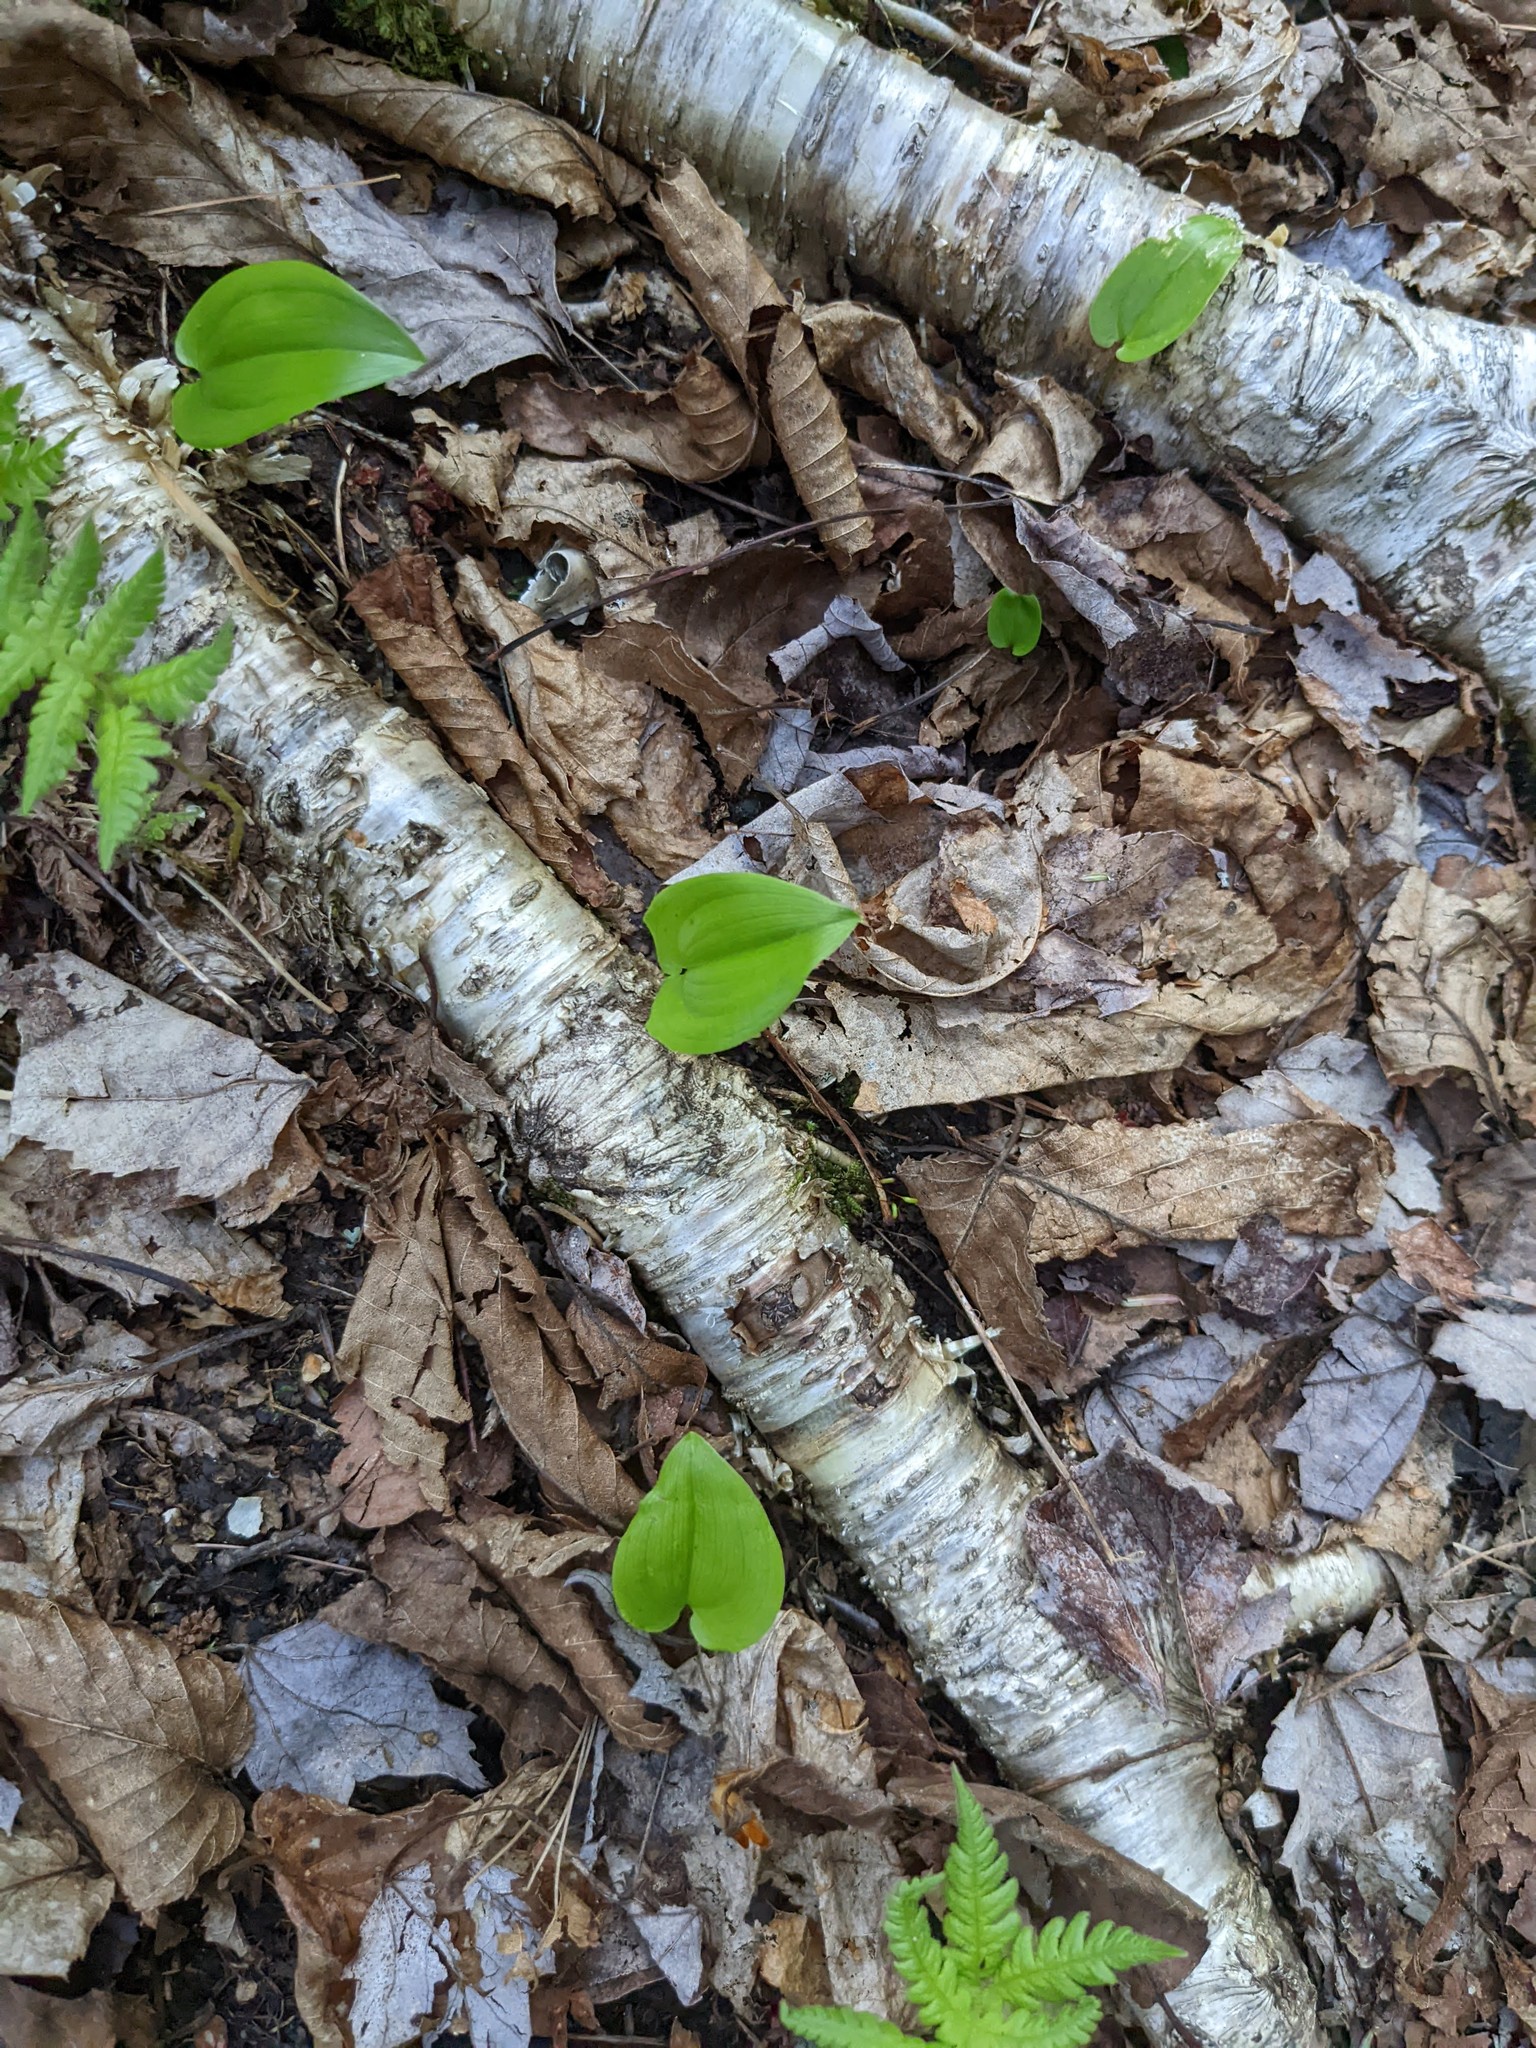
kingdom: Plantae
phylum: Tracheophyta
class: Liliopsida
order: Asparagales
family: Asparagaceae
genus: Maianthemum
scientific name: Maianthemum canadense
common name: False lily-of-the-valley
